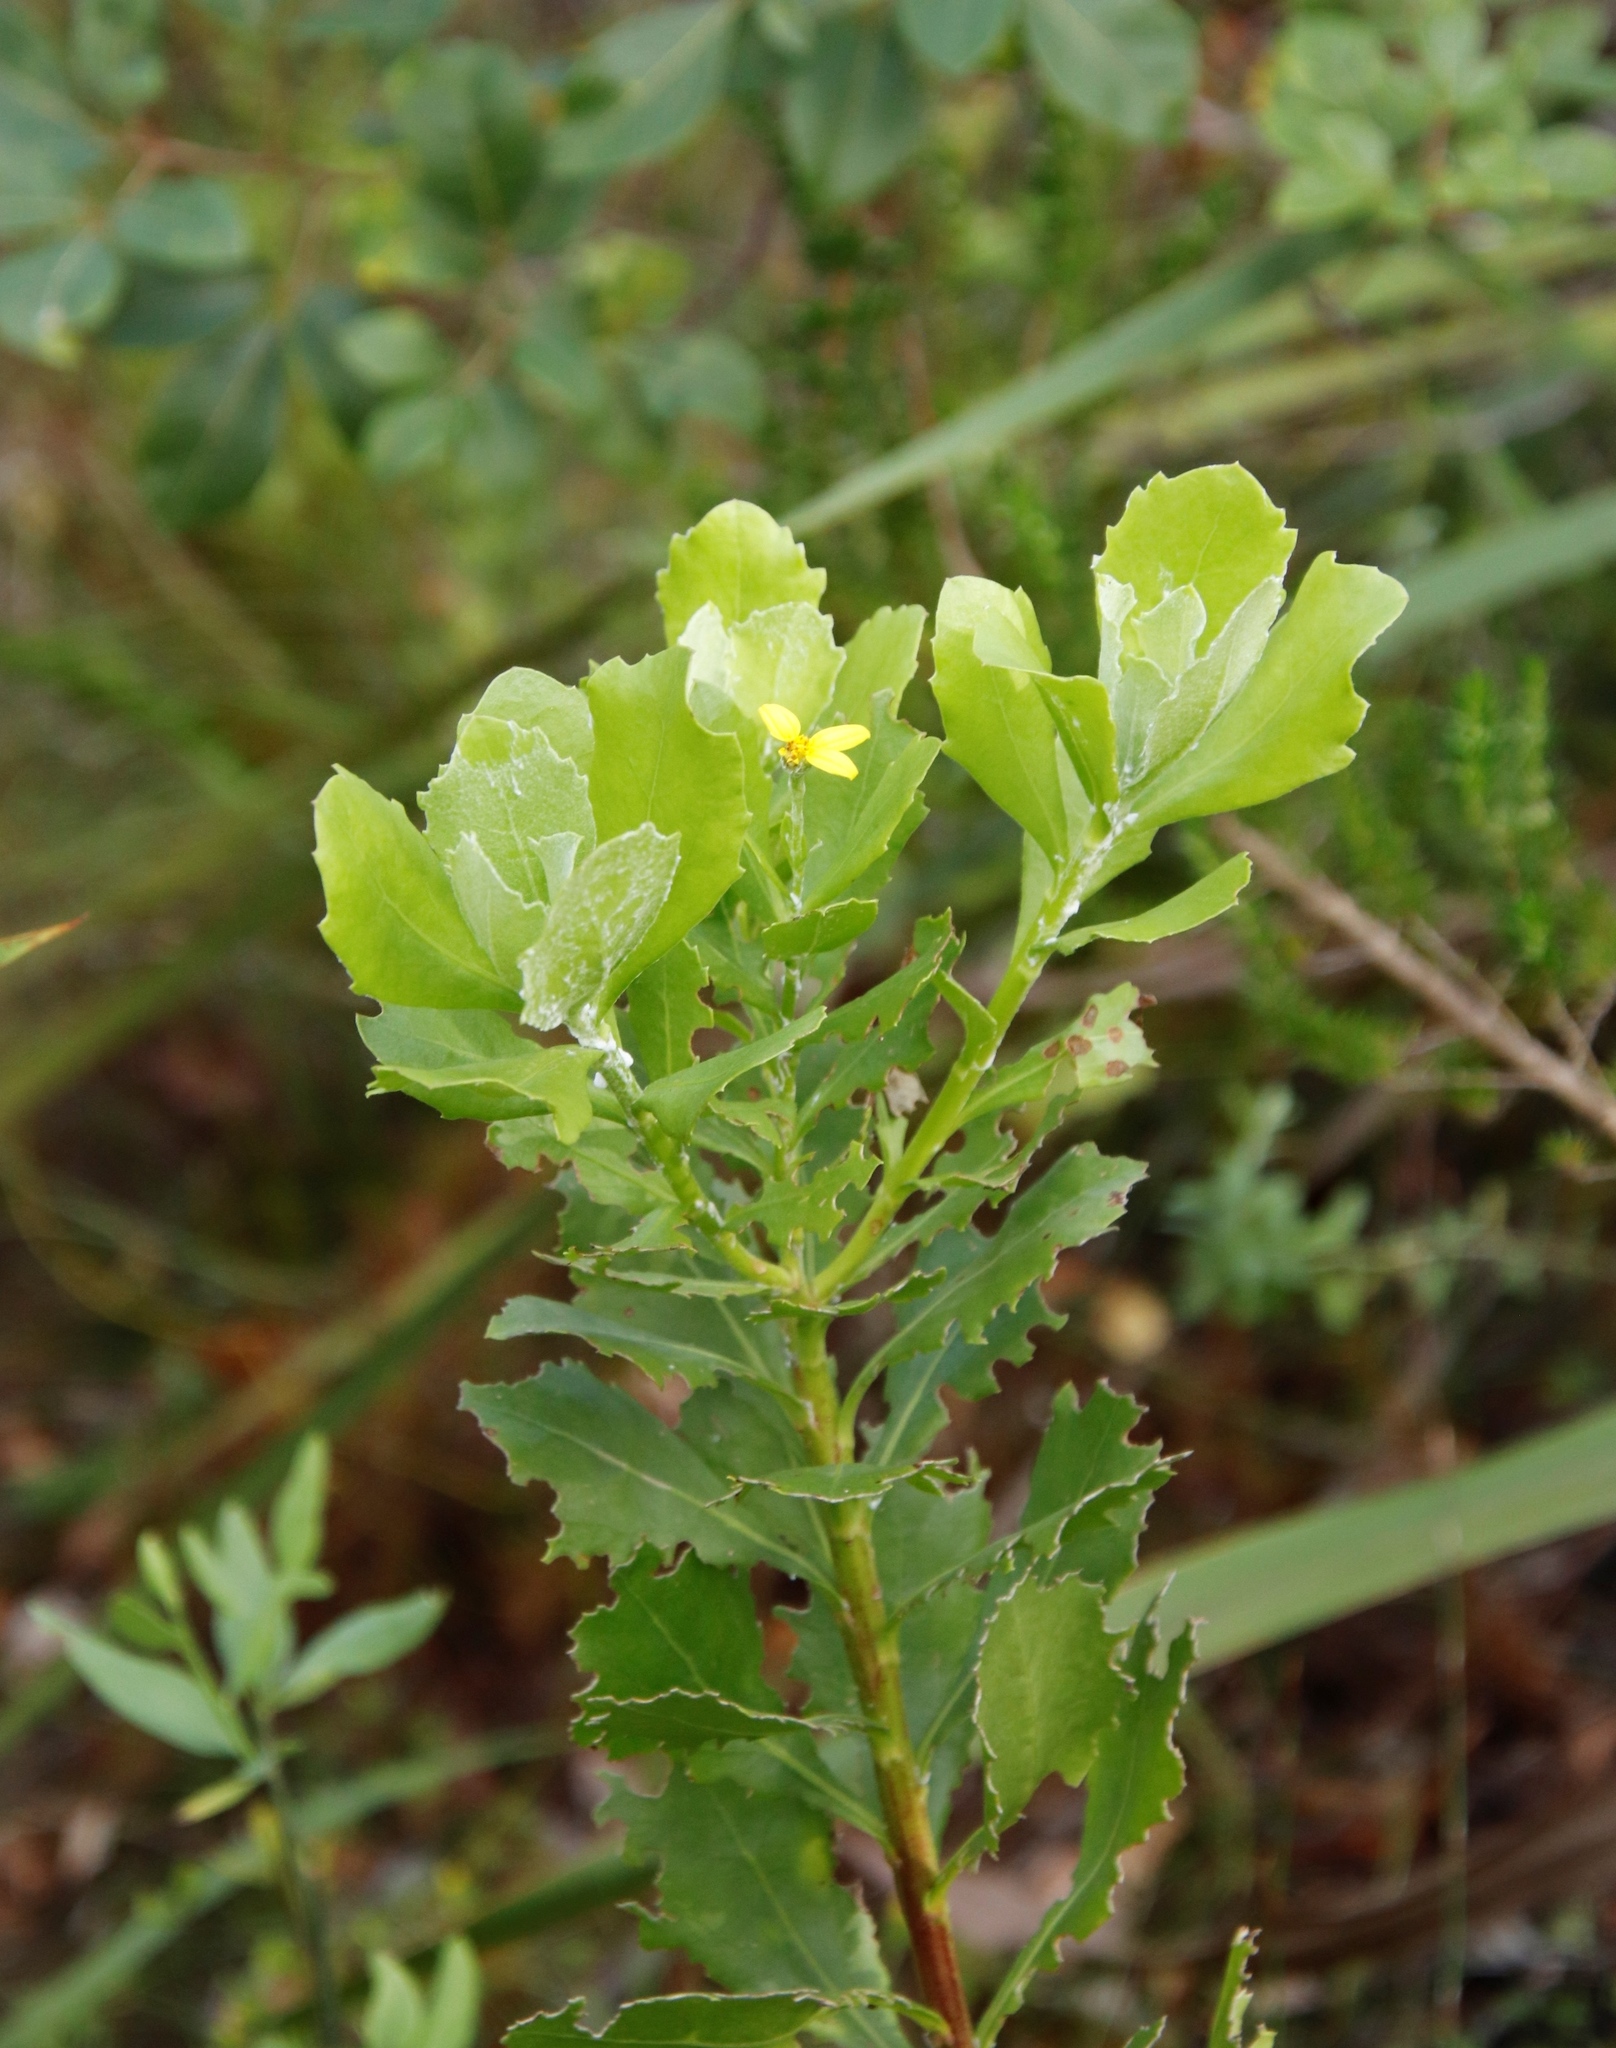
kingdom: Plantae
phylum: Tracheophyta
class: Magnoliopsida
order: Asterales
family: Asteraceae
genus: Osteospermum
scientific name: Osteospermum moniliferum
